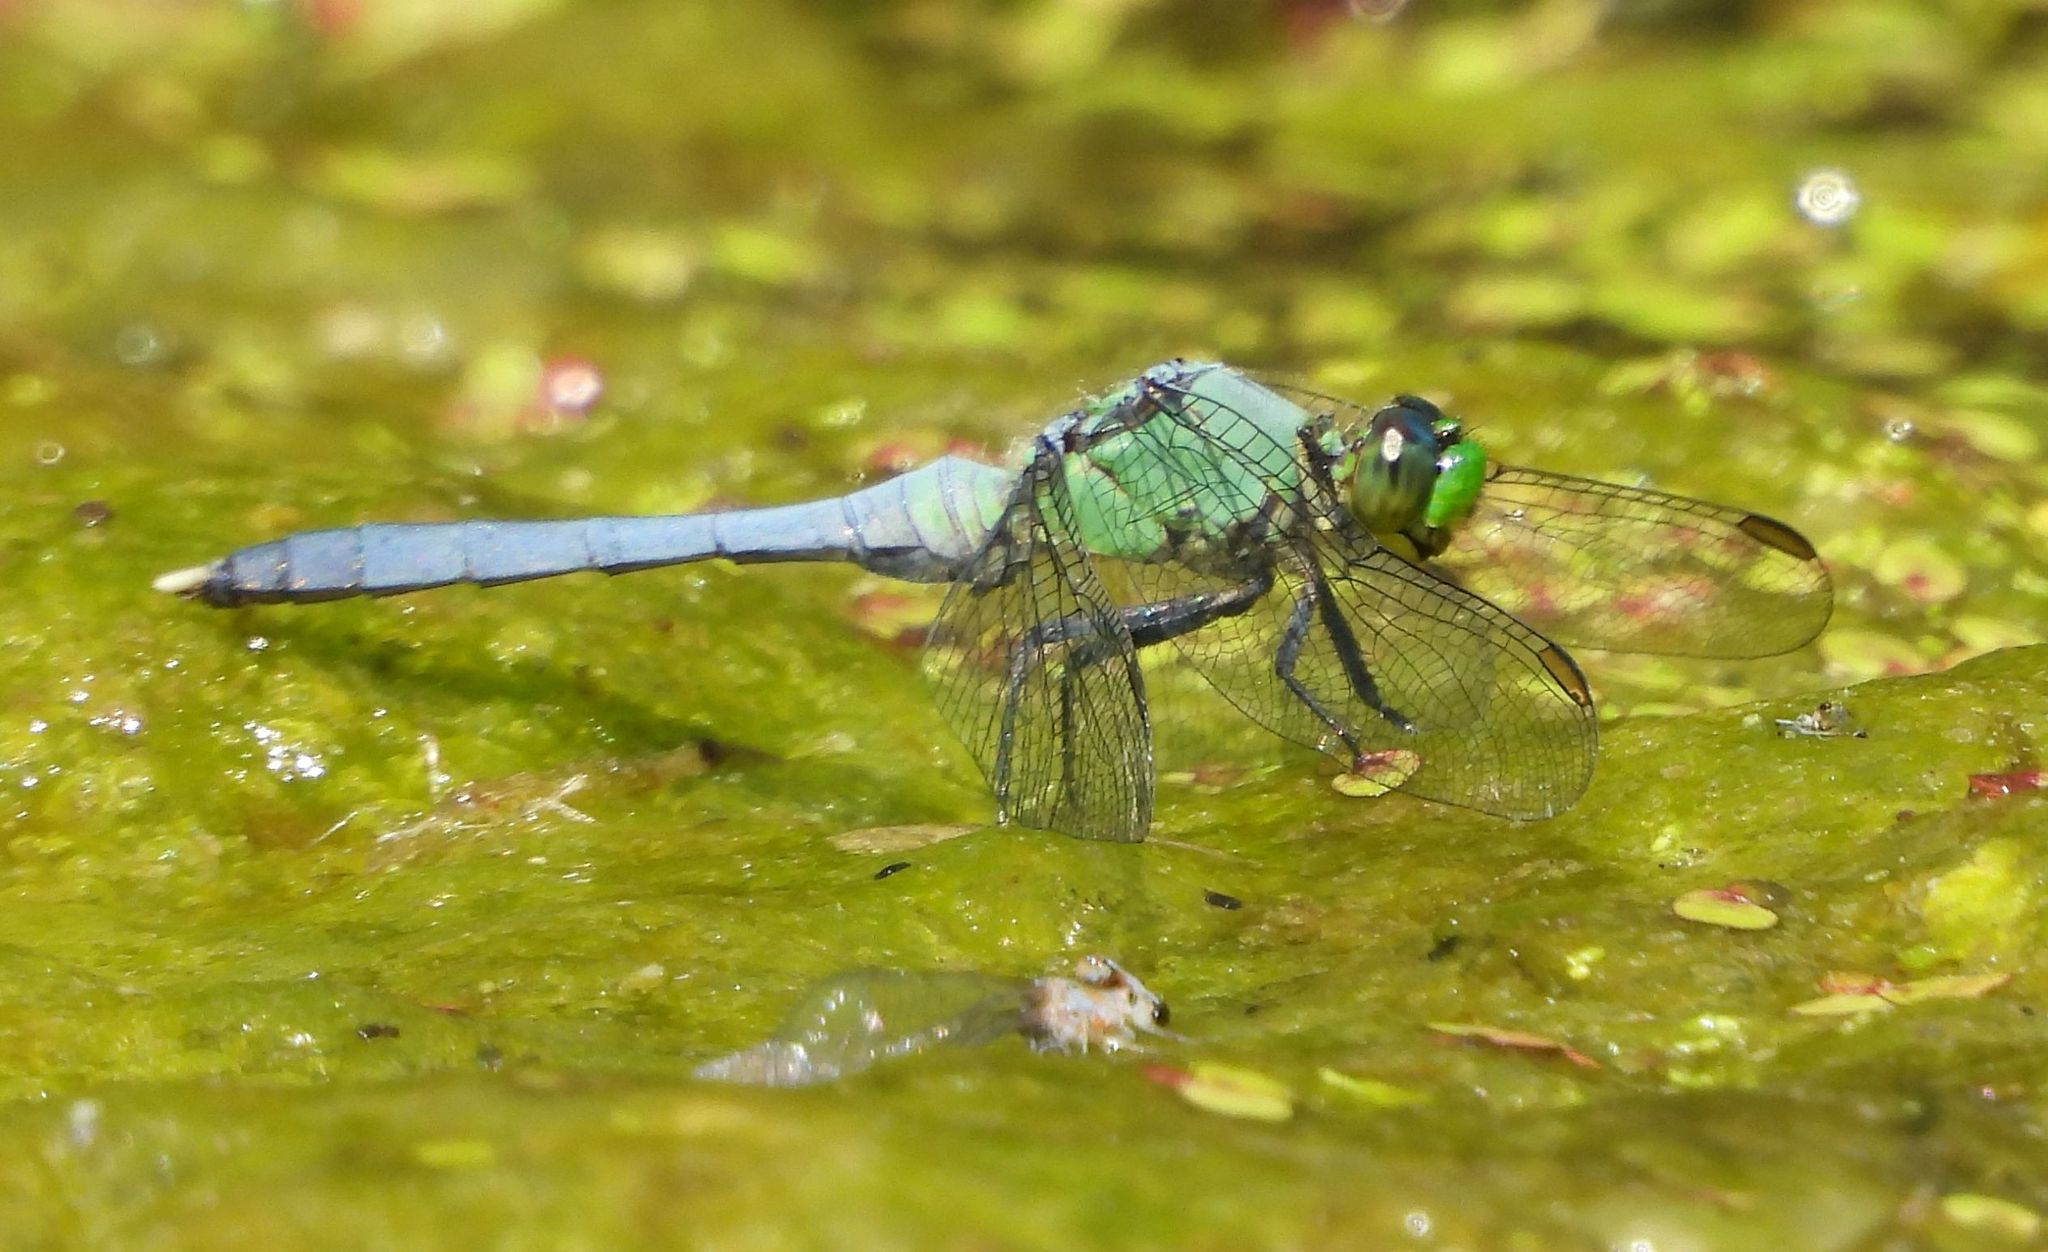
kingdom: Animalia
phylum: Arthropoda
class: Insecta
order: Odonata
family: Libellulidae
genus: Erythemis
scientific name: Erythemis simplicicollis
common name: Eastern pondhawk
